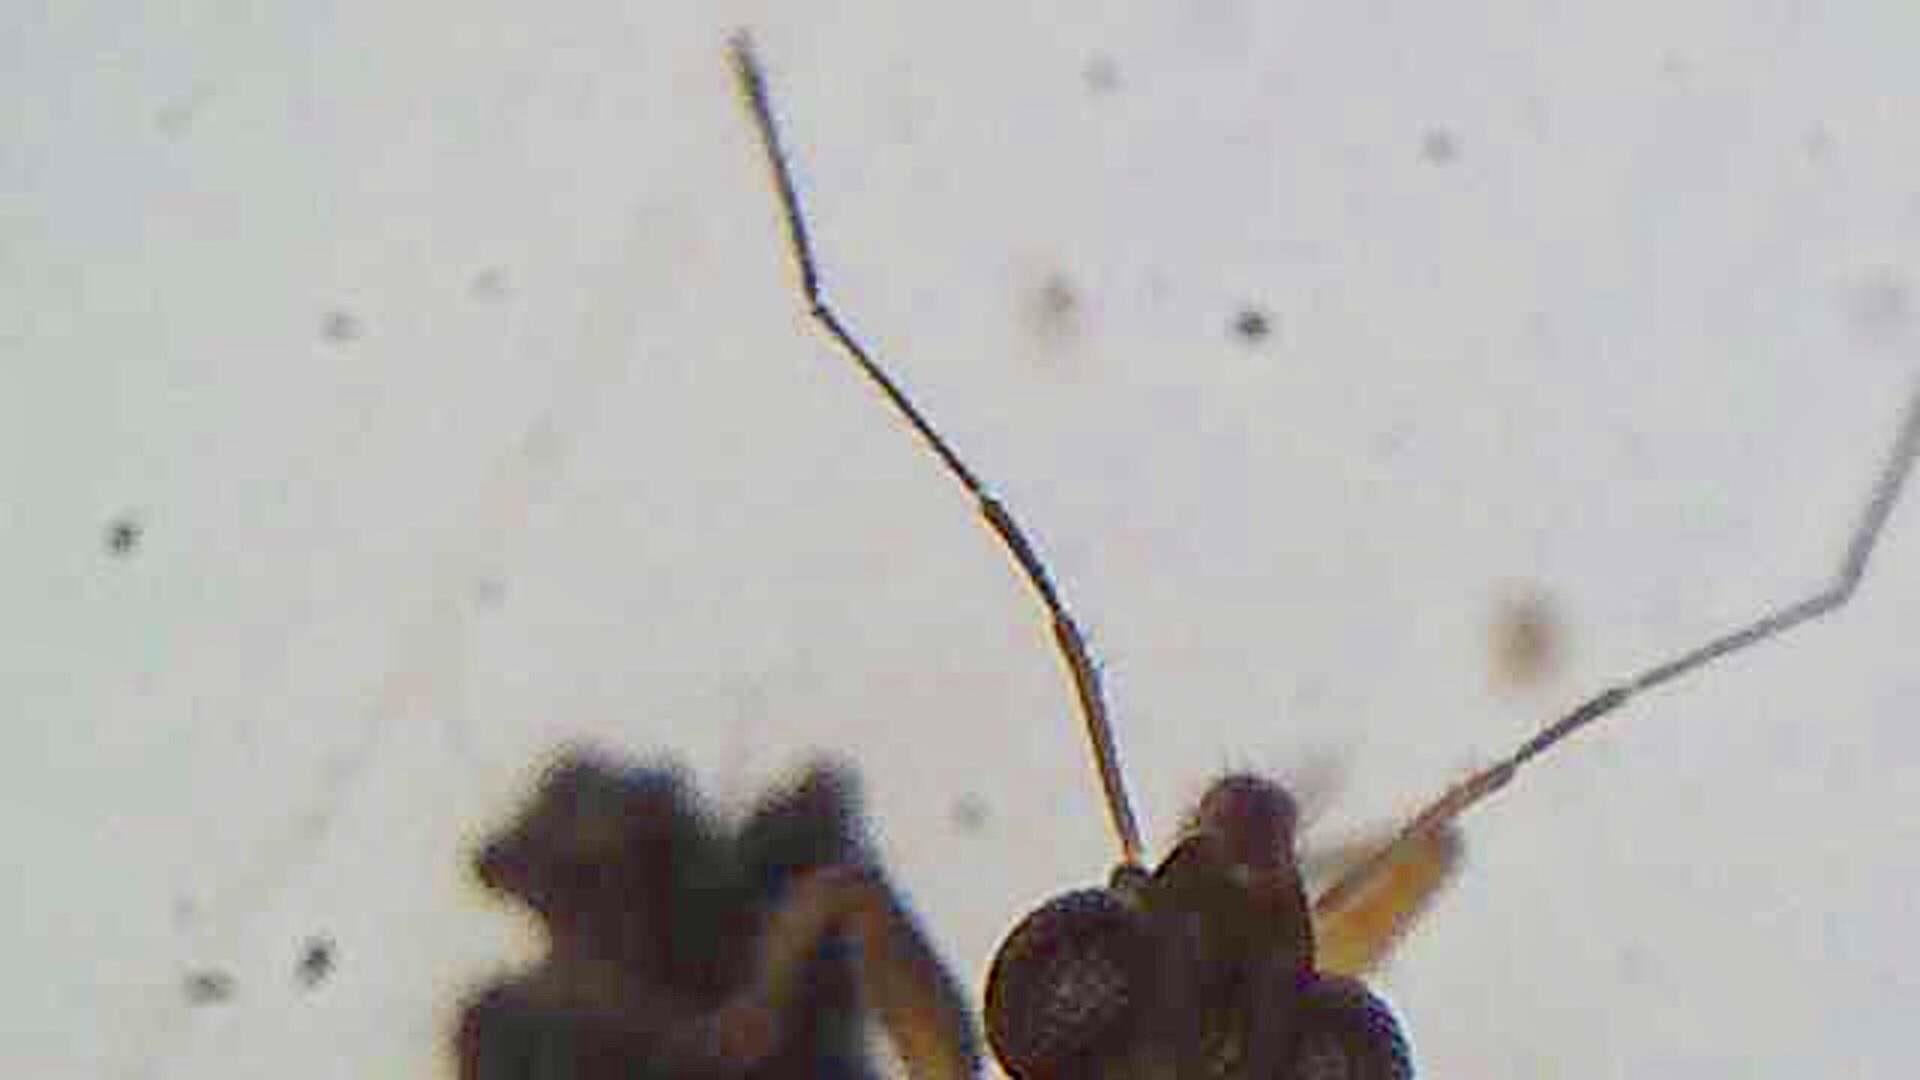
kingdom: Animalia
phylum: Arthropoda
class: Insecta
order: Hemiptera
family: Mesoveliidae
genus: Mniovelia
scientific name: Mniovelia kuscheli
